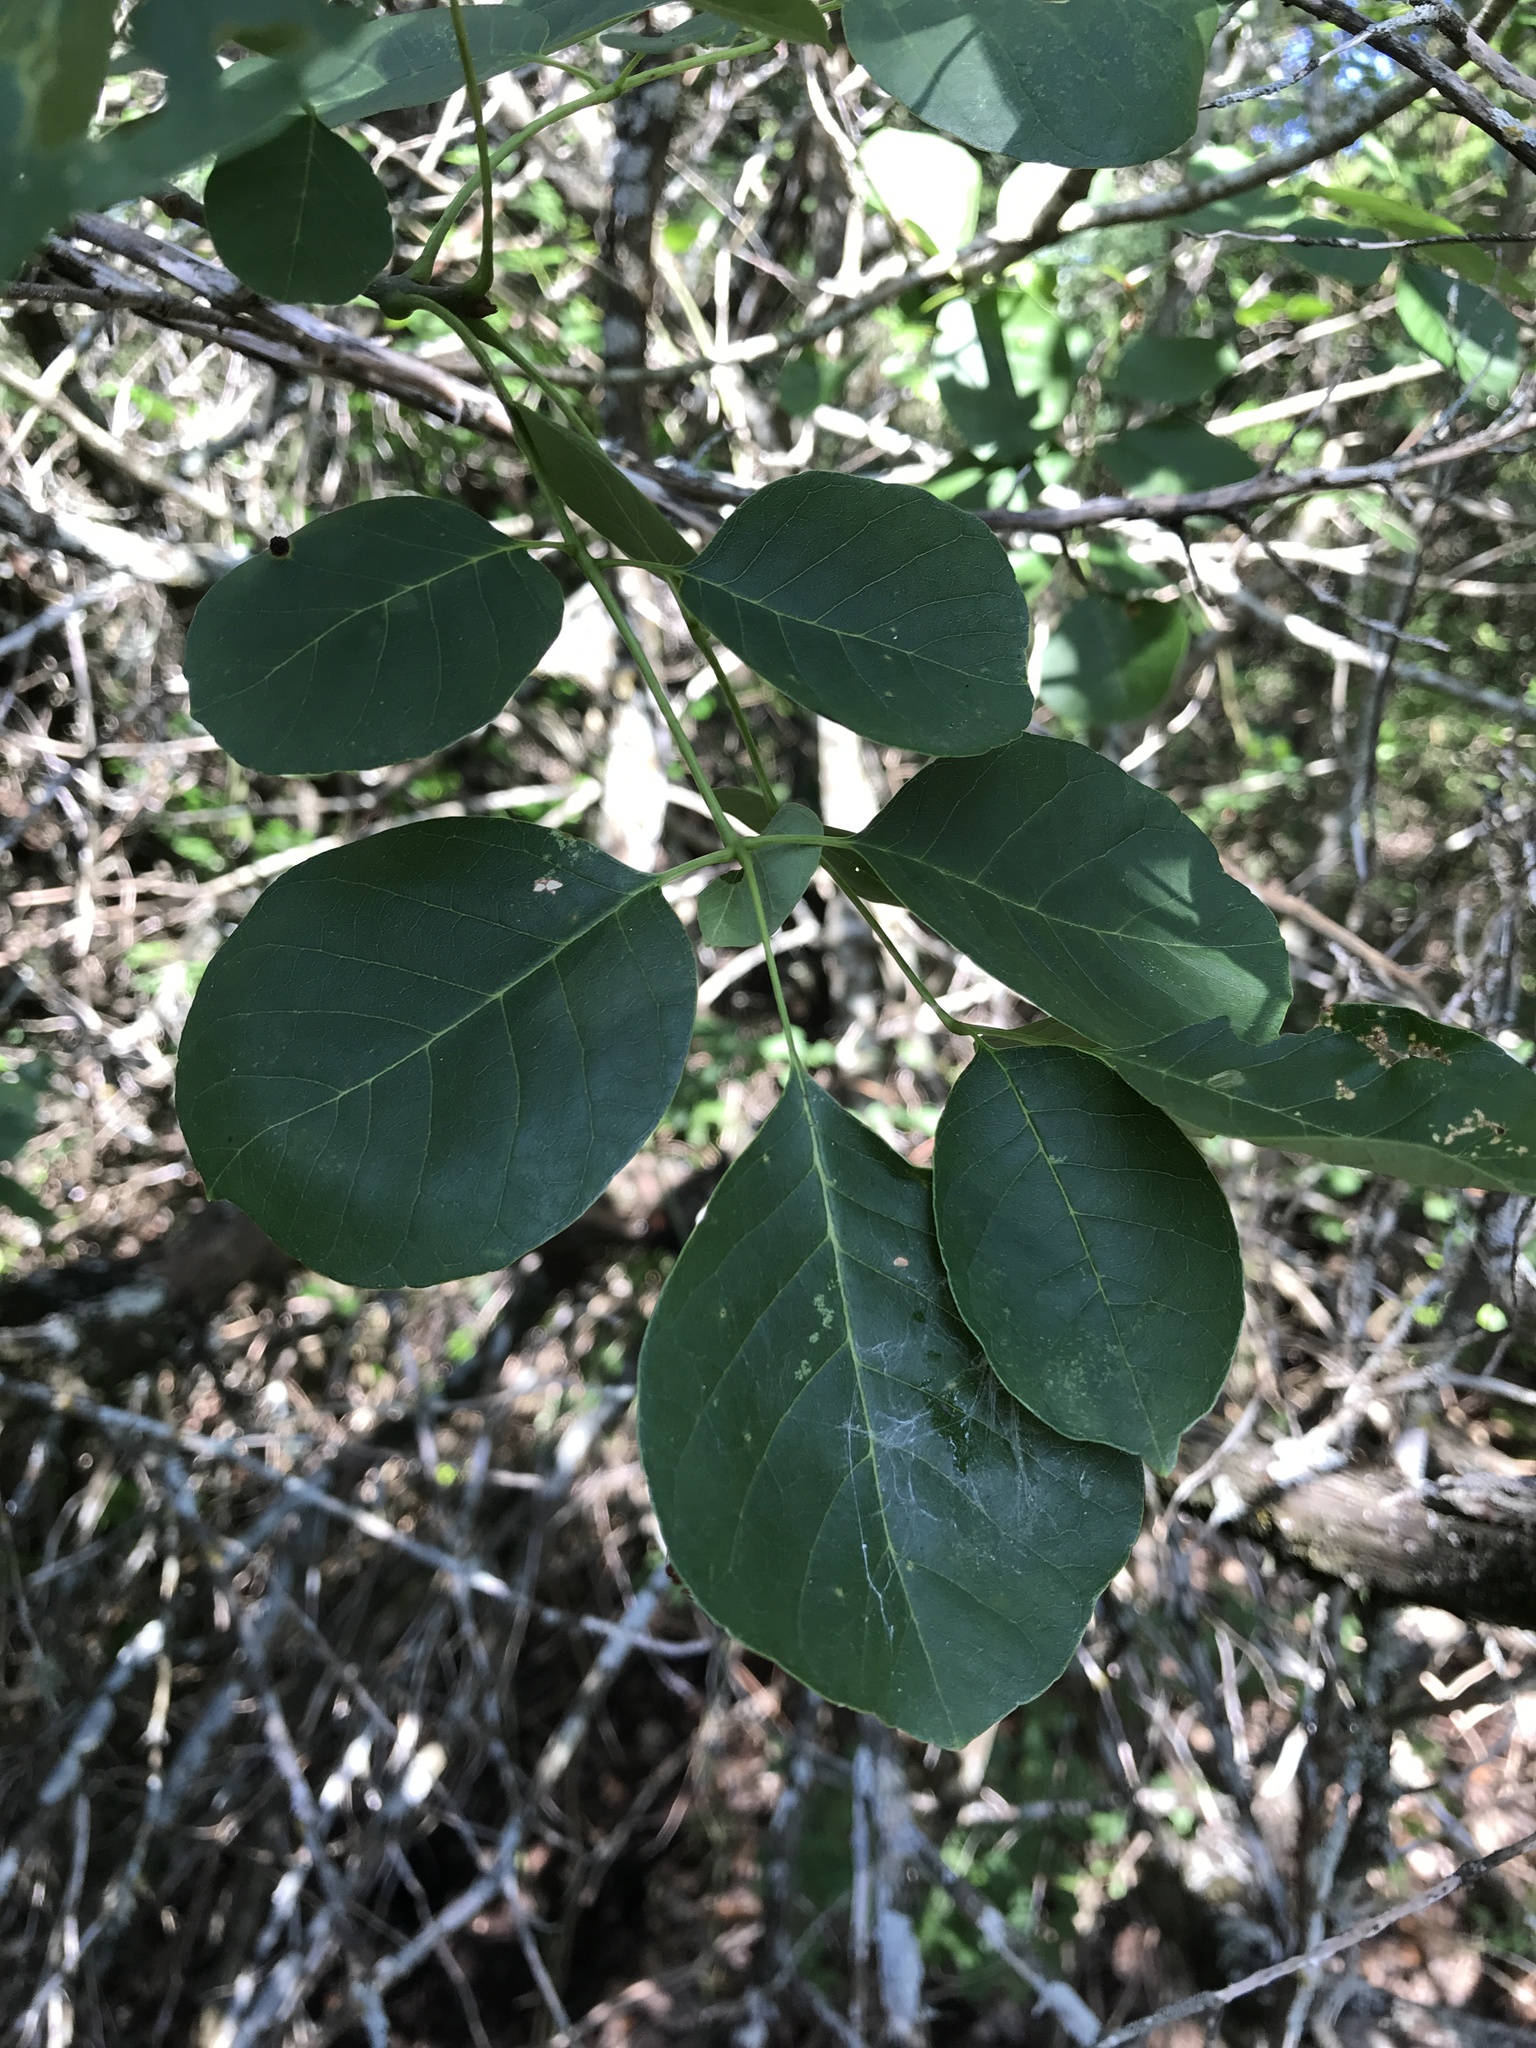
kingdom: Plantae
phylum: Tracheophyta
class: Magnoliopsida
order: Lamiales
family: Oleaceae
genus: Fraxinus
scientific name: Fraxinus albicans
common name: Texas ash
